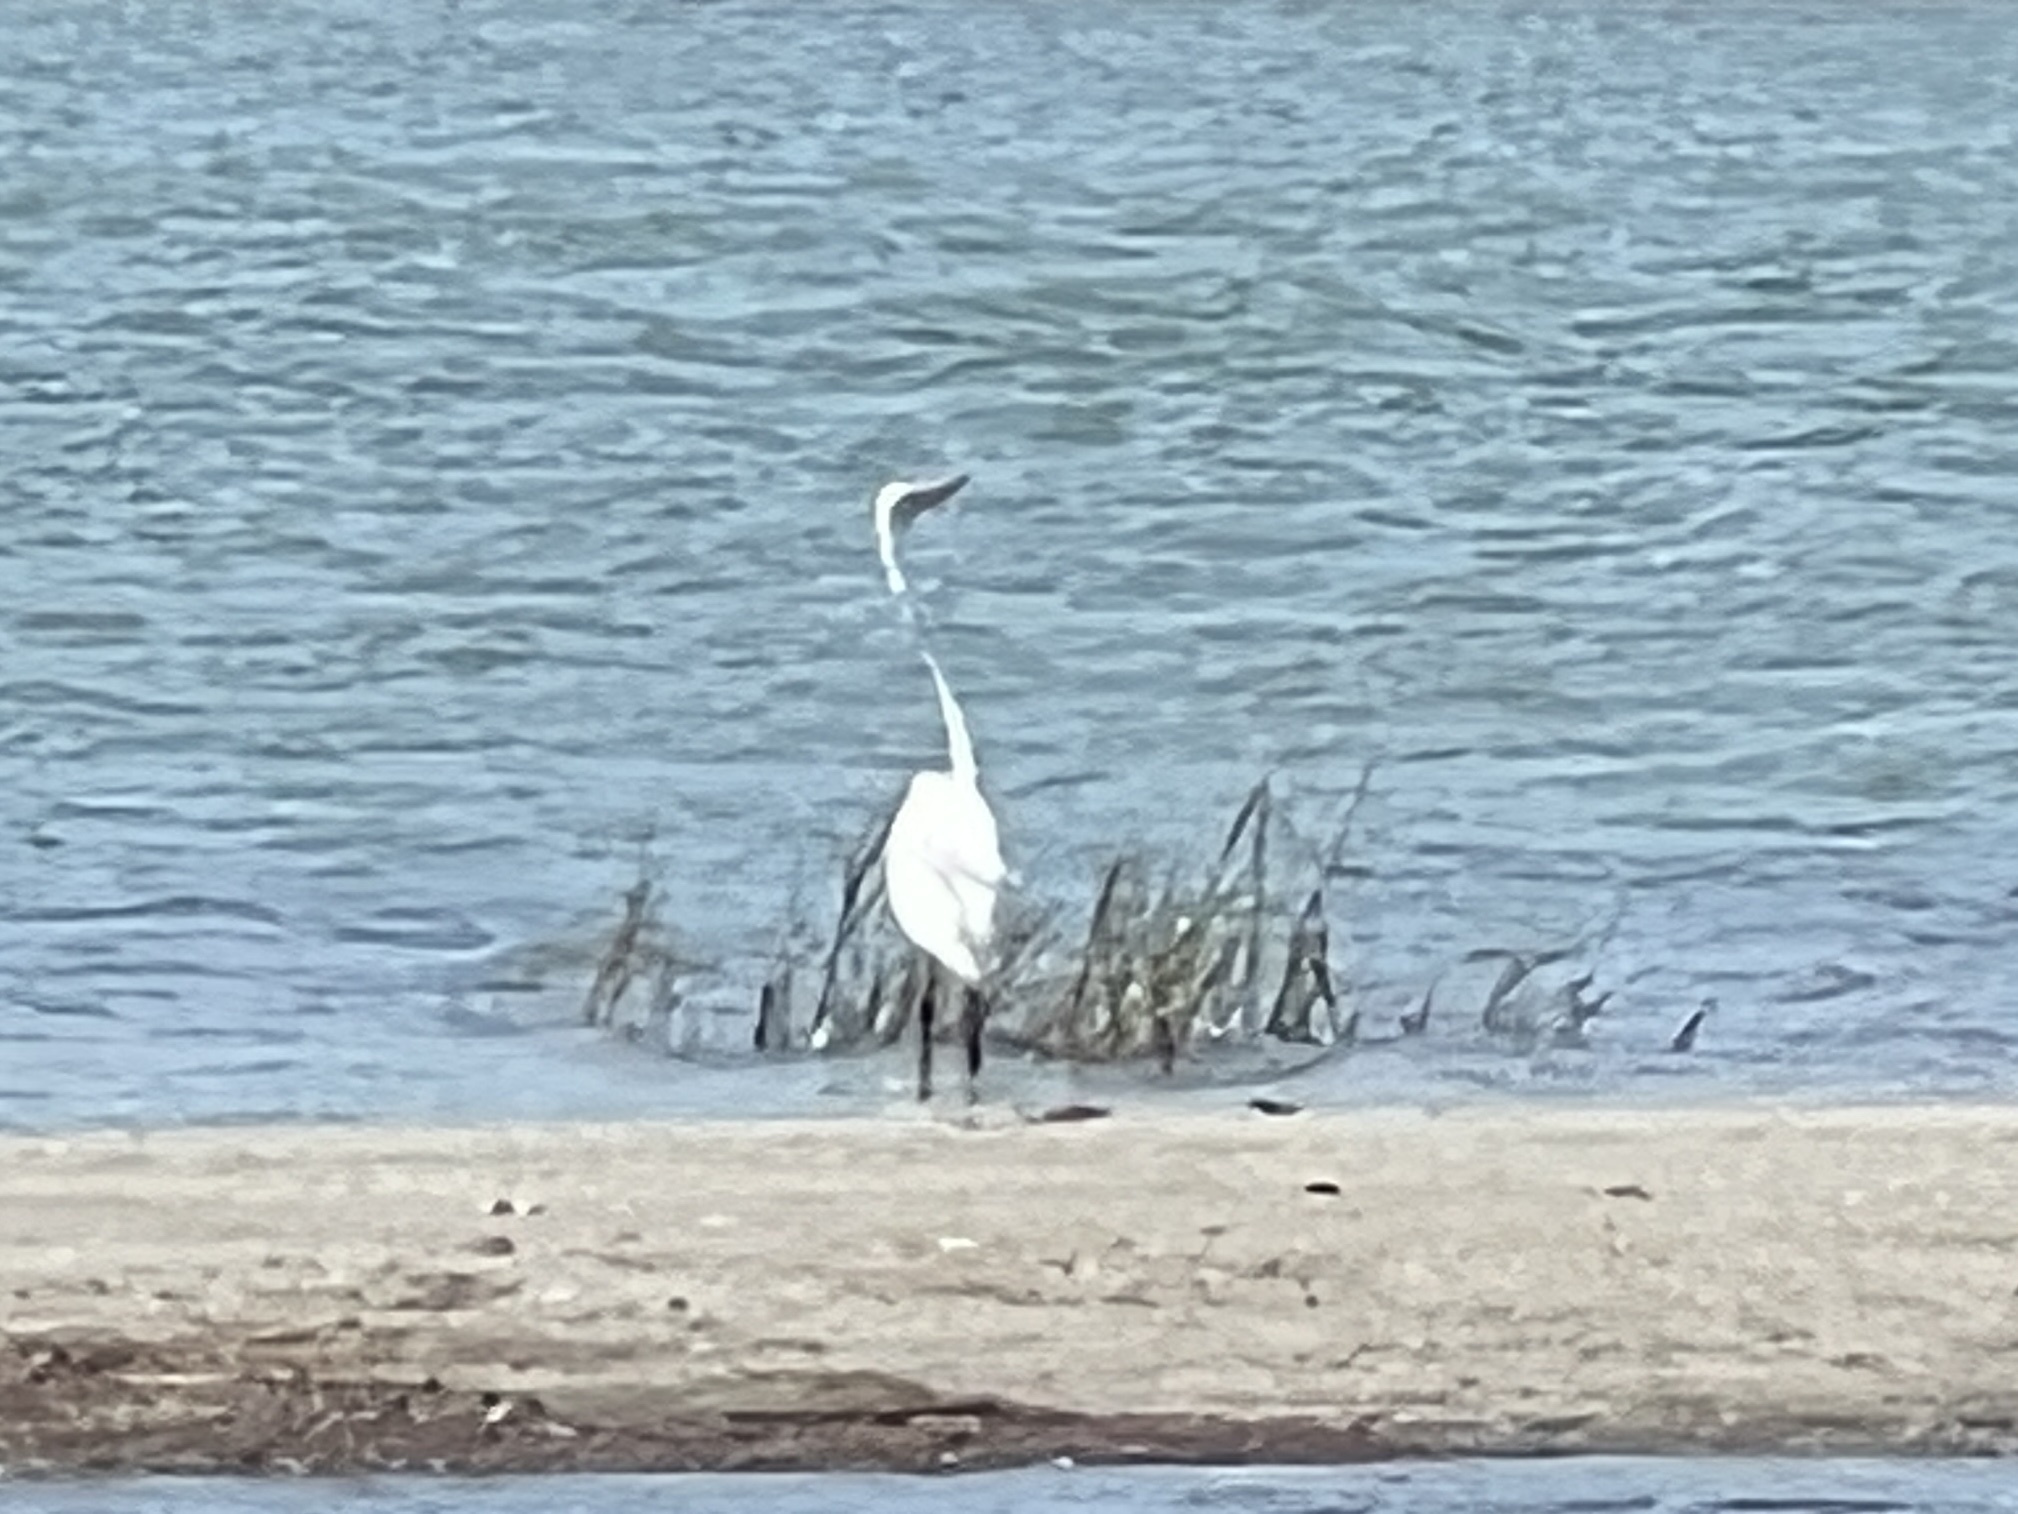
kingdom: Animalia
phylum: Chordata
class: Aves
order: Pelecaniformes
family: Ardeidae
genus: Ardea
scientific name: Ardea alba
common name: Great egret
